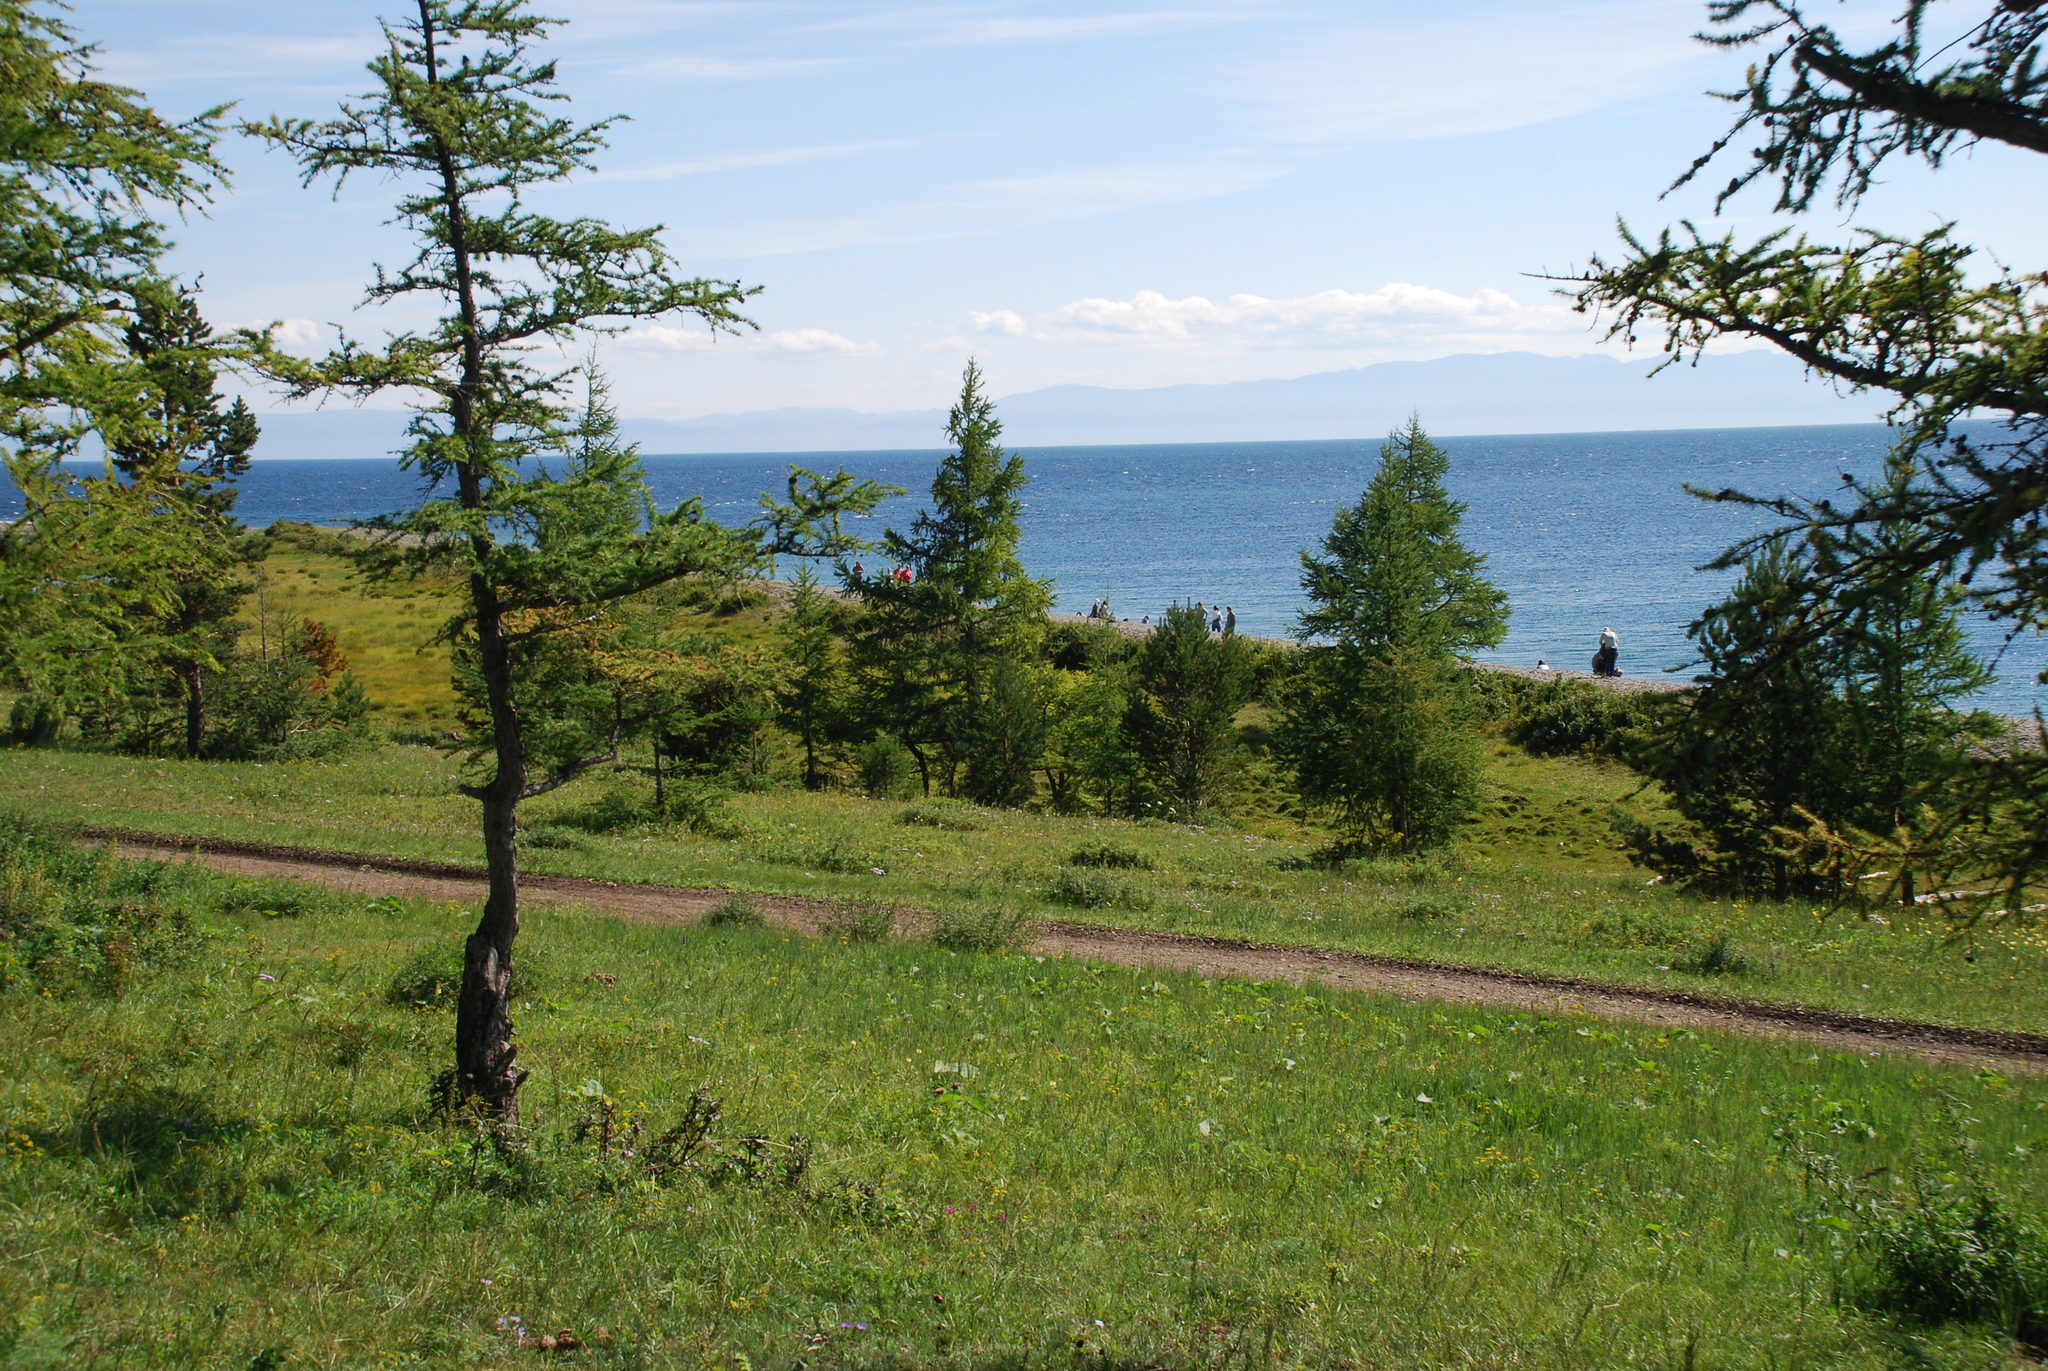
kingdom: Plantae
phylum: Tracheophyta
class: Pinopsida
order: Pinales
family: Pinaceae
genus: Larix
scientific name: Larix sibirica
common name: Siberian larch
